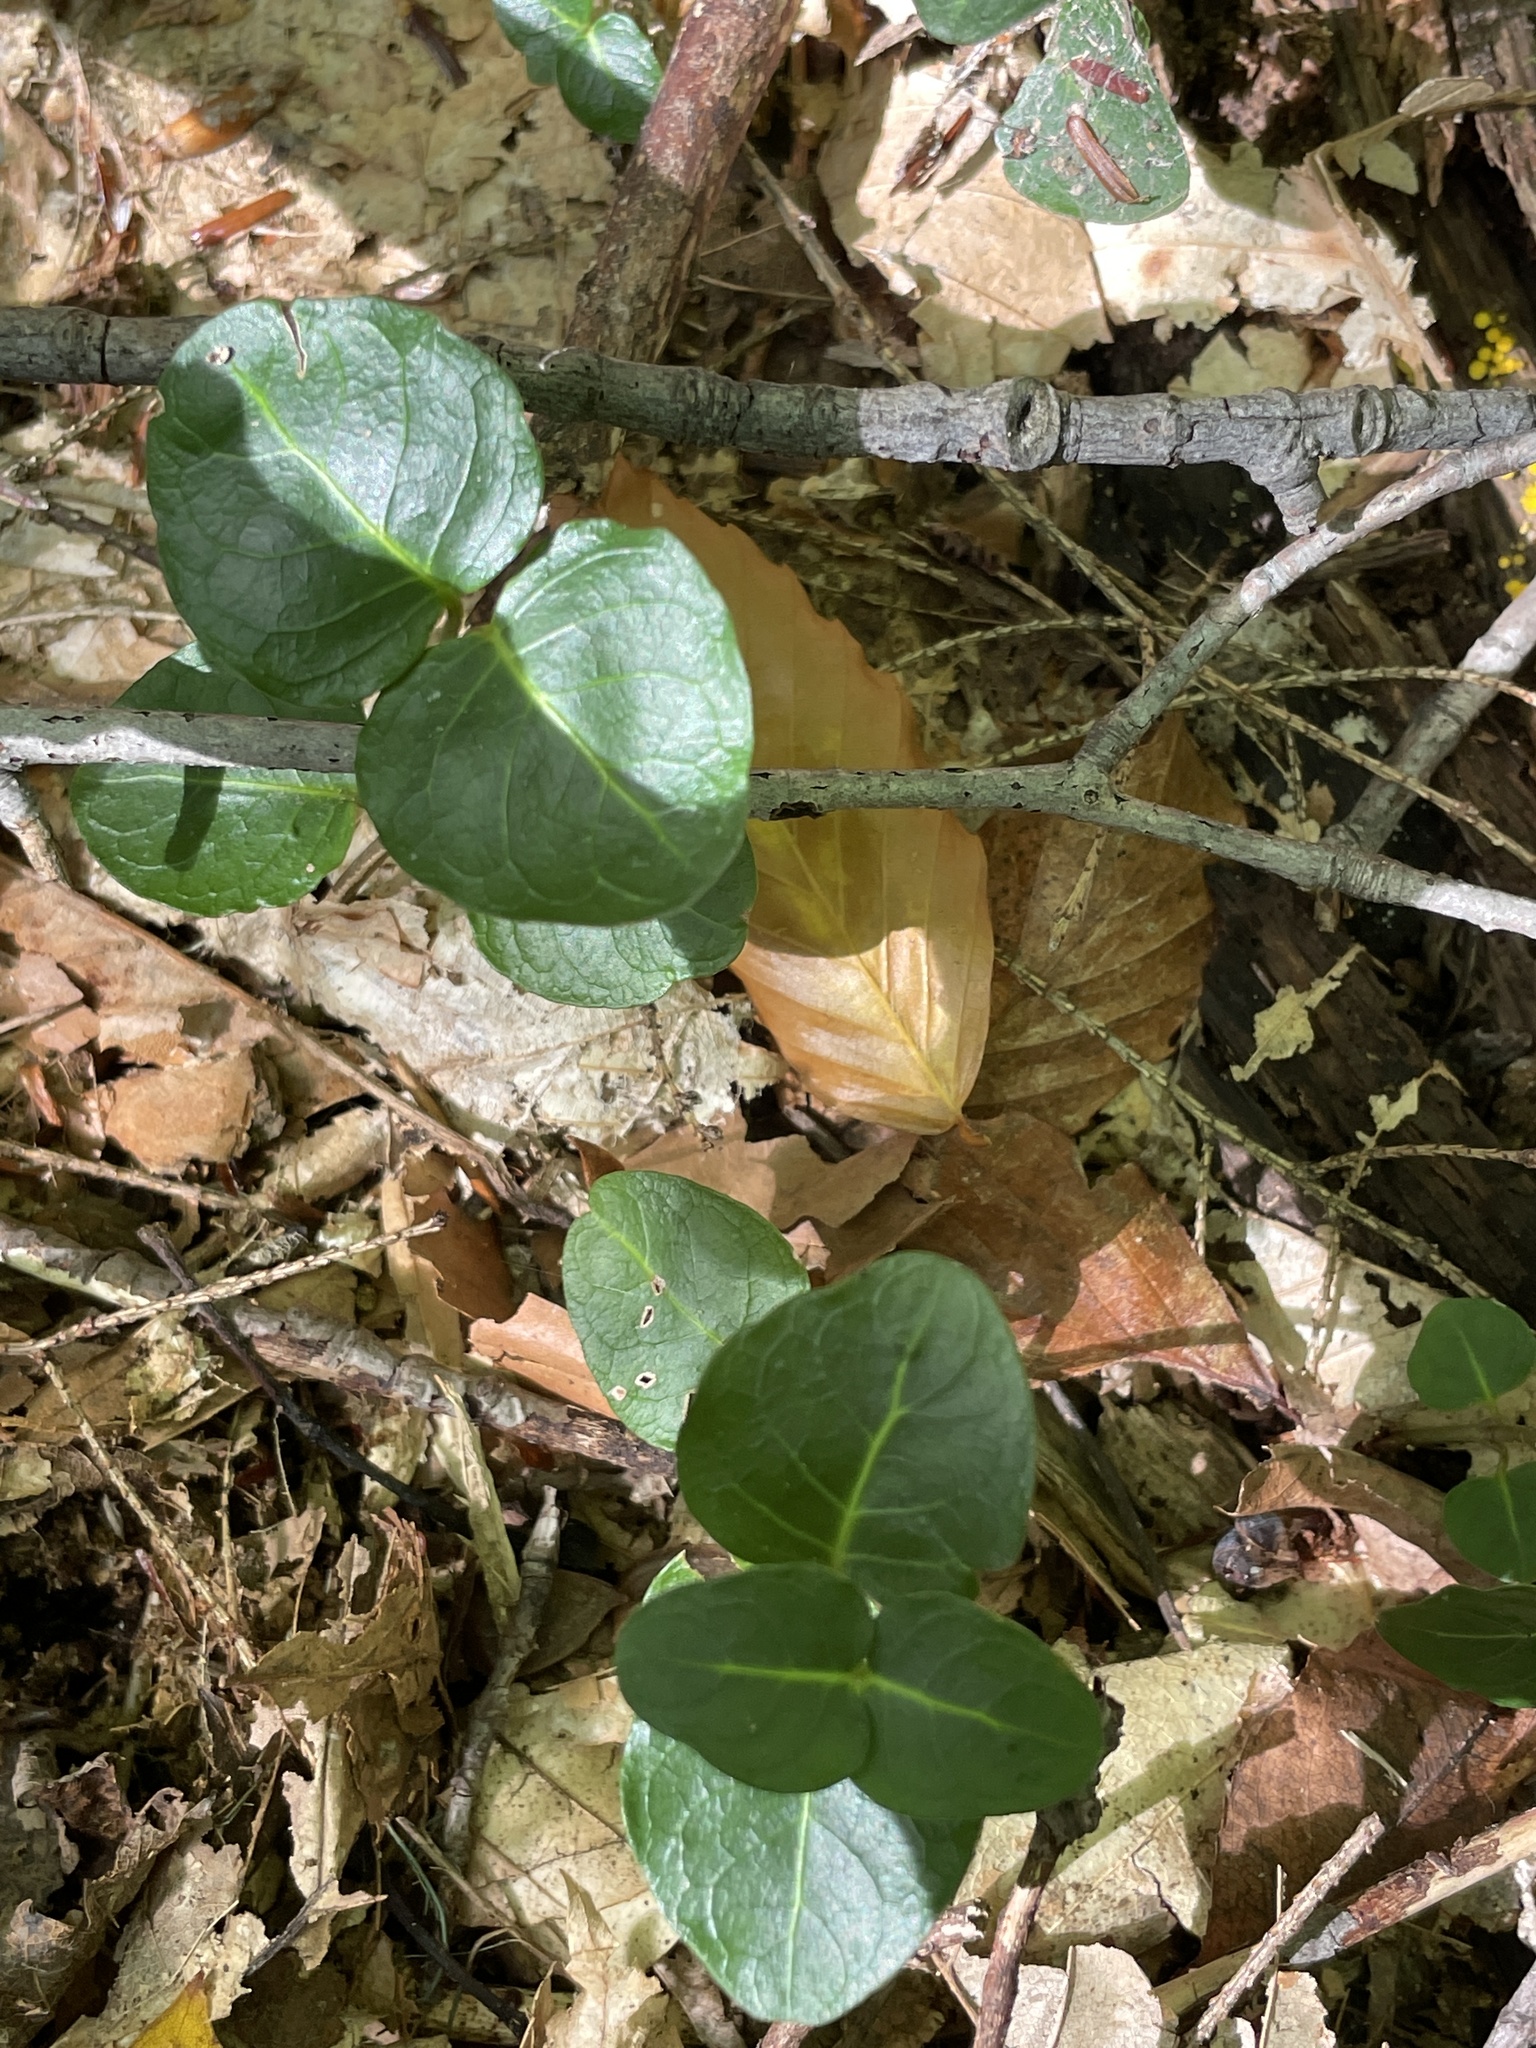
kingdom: Plantae
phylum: Tracheophyta
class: Magnoliopsida
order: Gentianales
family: Rubiaceae
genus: Mitchella
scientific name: Mitchella repens
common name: Partridge-berry
